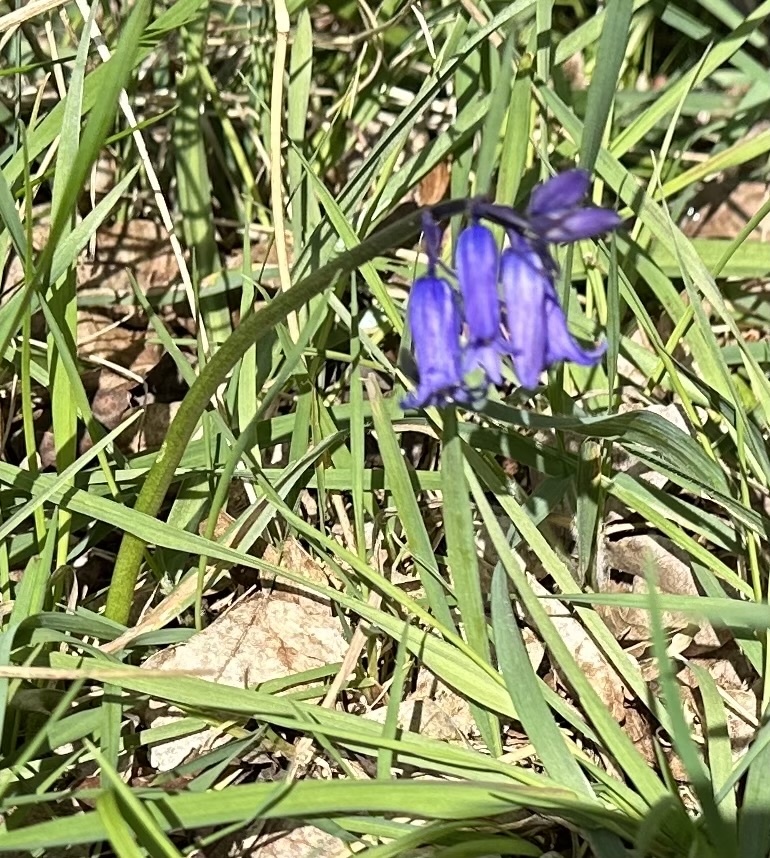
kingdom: Plantae
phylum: Tracheophyta
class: Liliopsida
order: Asparagales
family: Asparagaceae
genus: Hyacinthoides
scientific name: Hyacinthoides non-scripta
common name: Bluebell
